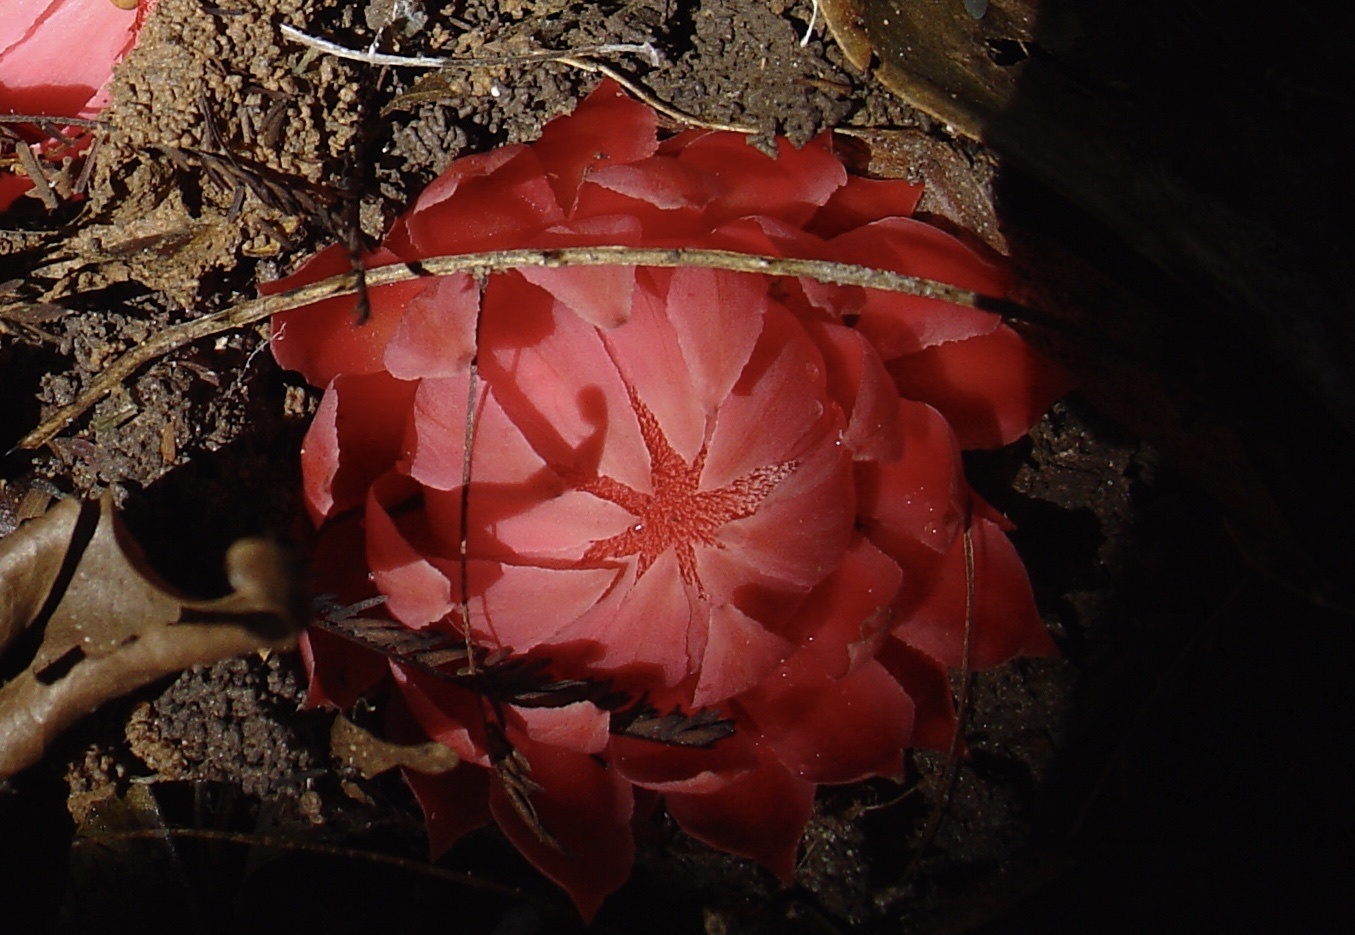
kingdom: Plantae
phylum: Tracheophyta
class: Magnoliopsida
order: Santalales
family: Balanophoraceae
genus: Thonningia
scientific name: Thonningia sanguinea
